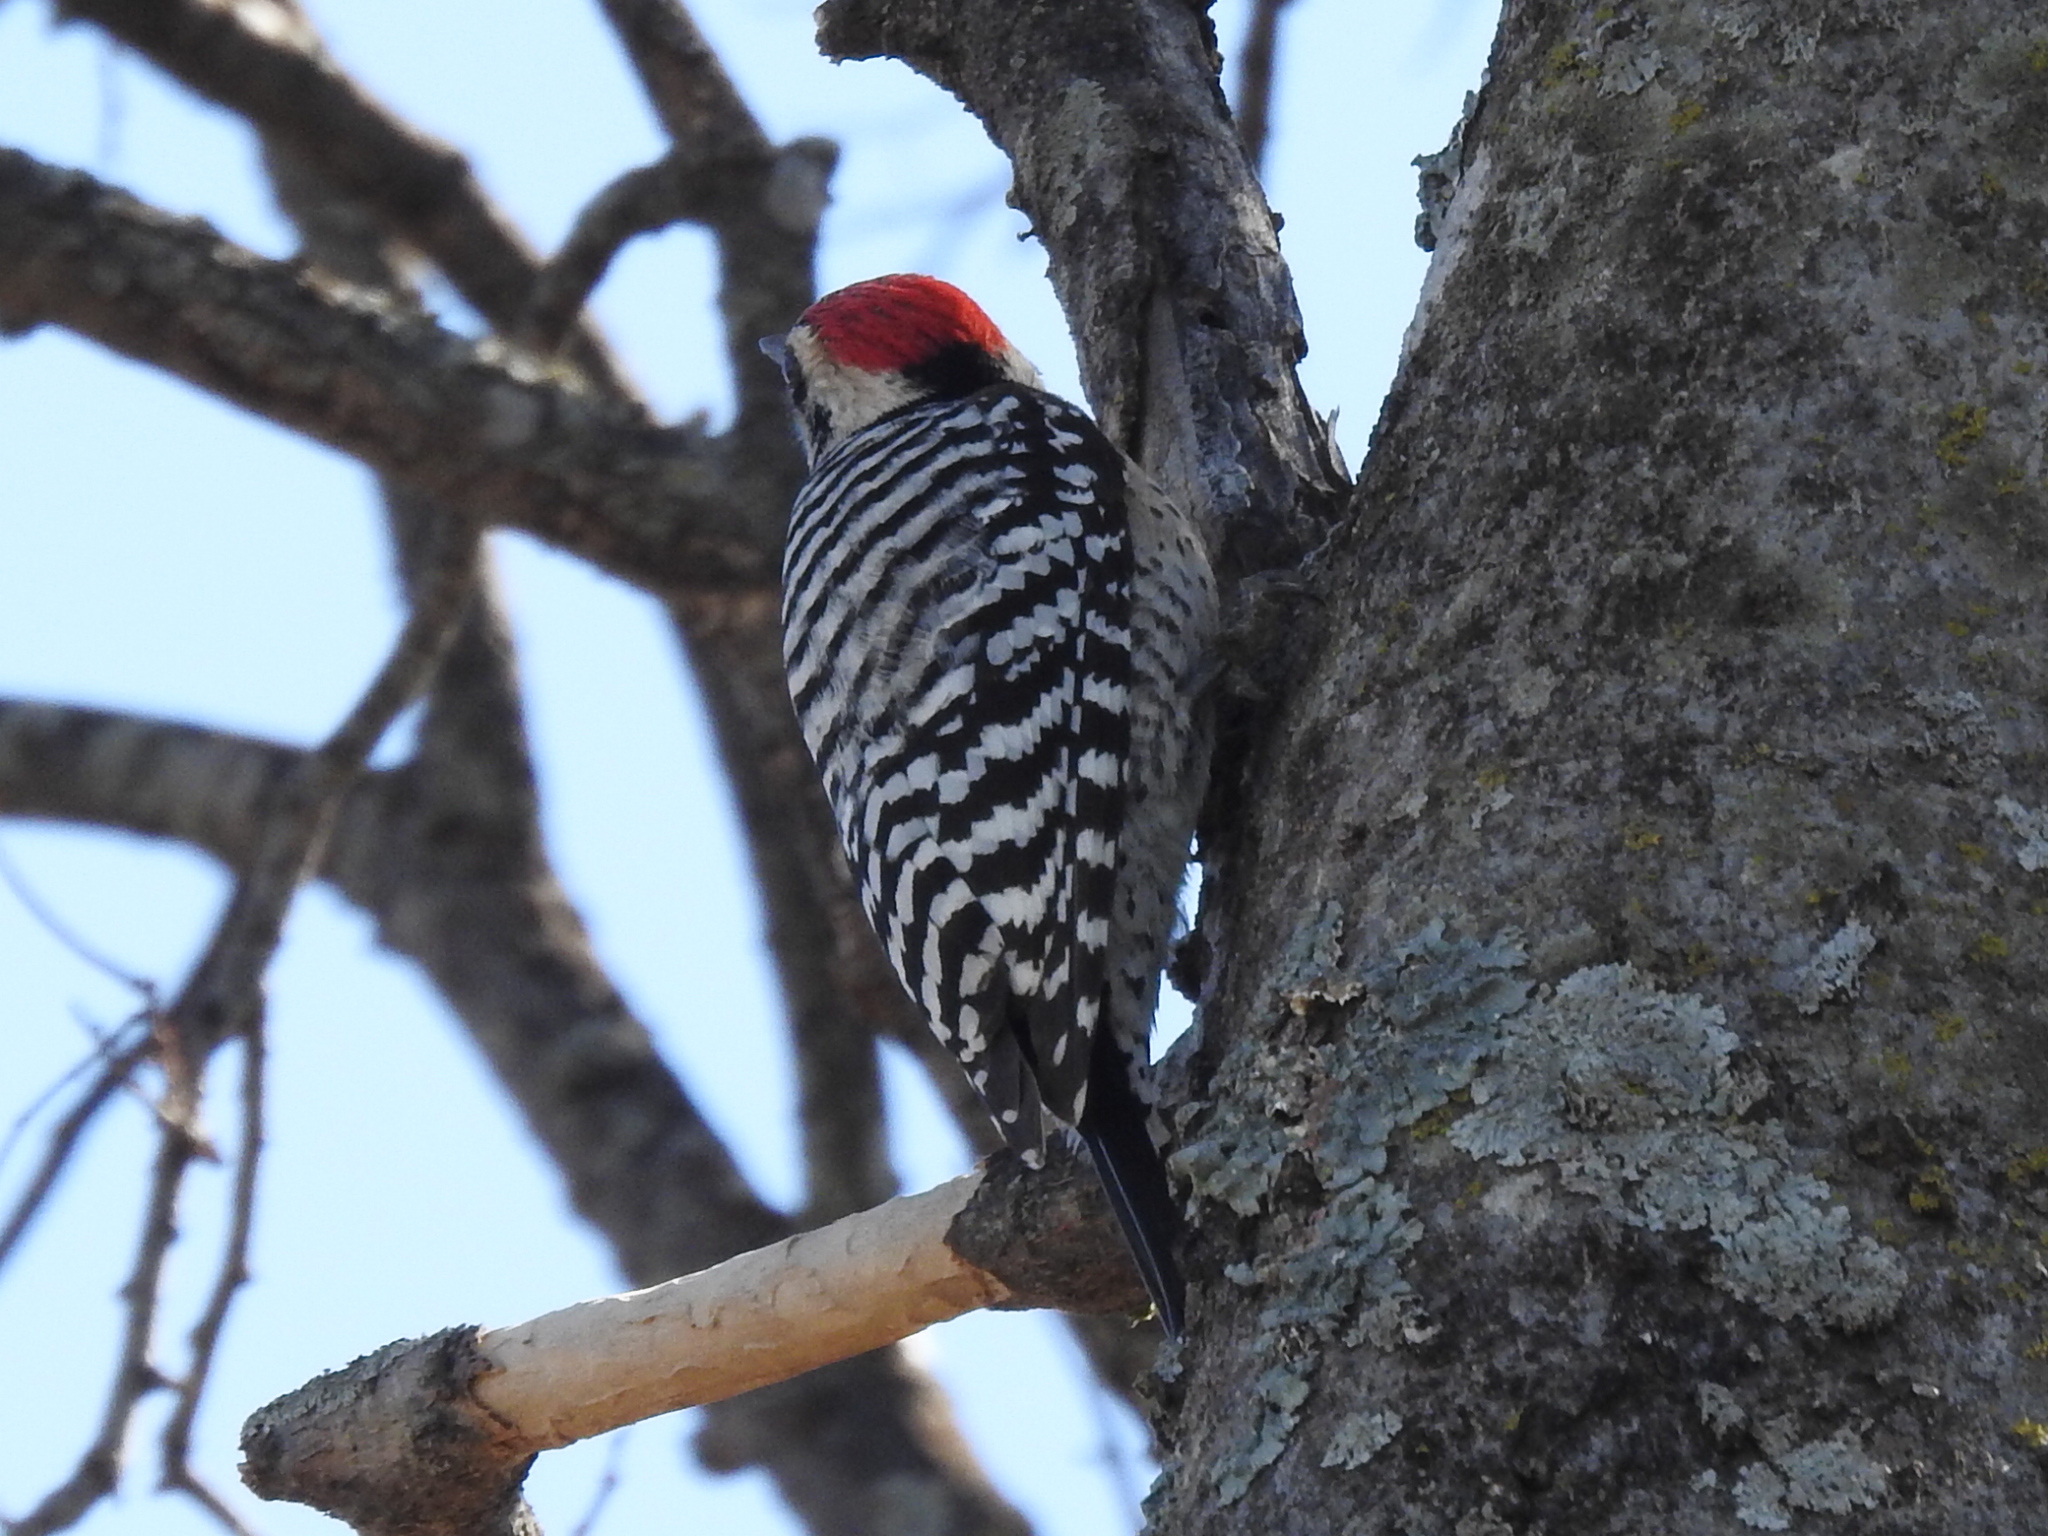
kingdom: Animalia
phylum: Chordata
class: Aves
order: Piciformes
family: Picidae
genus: Dryobates
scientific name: Dryobates scalaris
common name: Ladder-backed woodpecker
